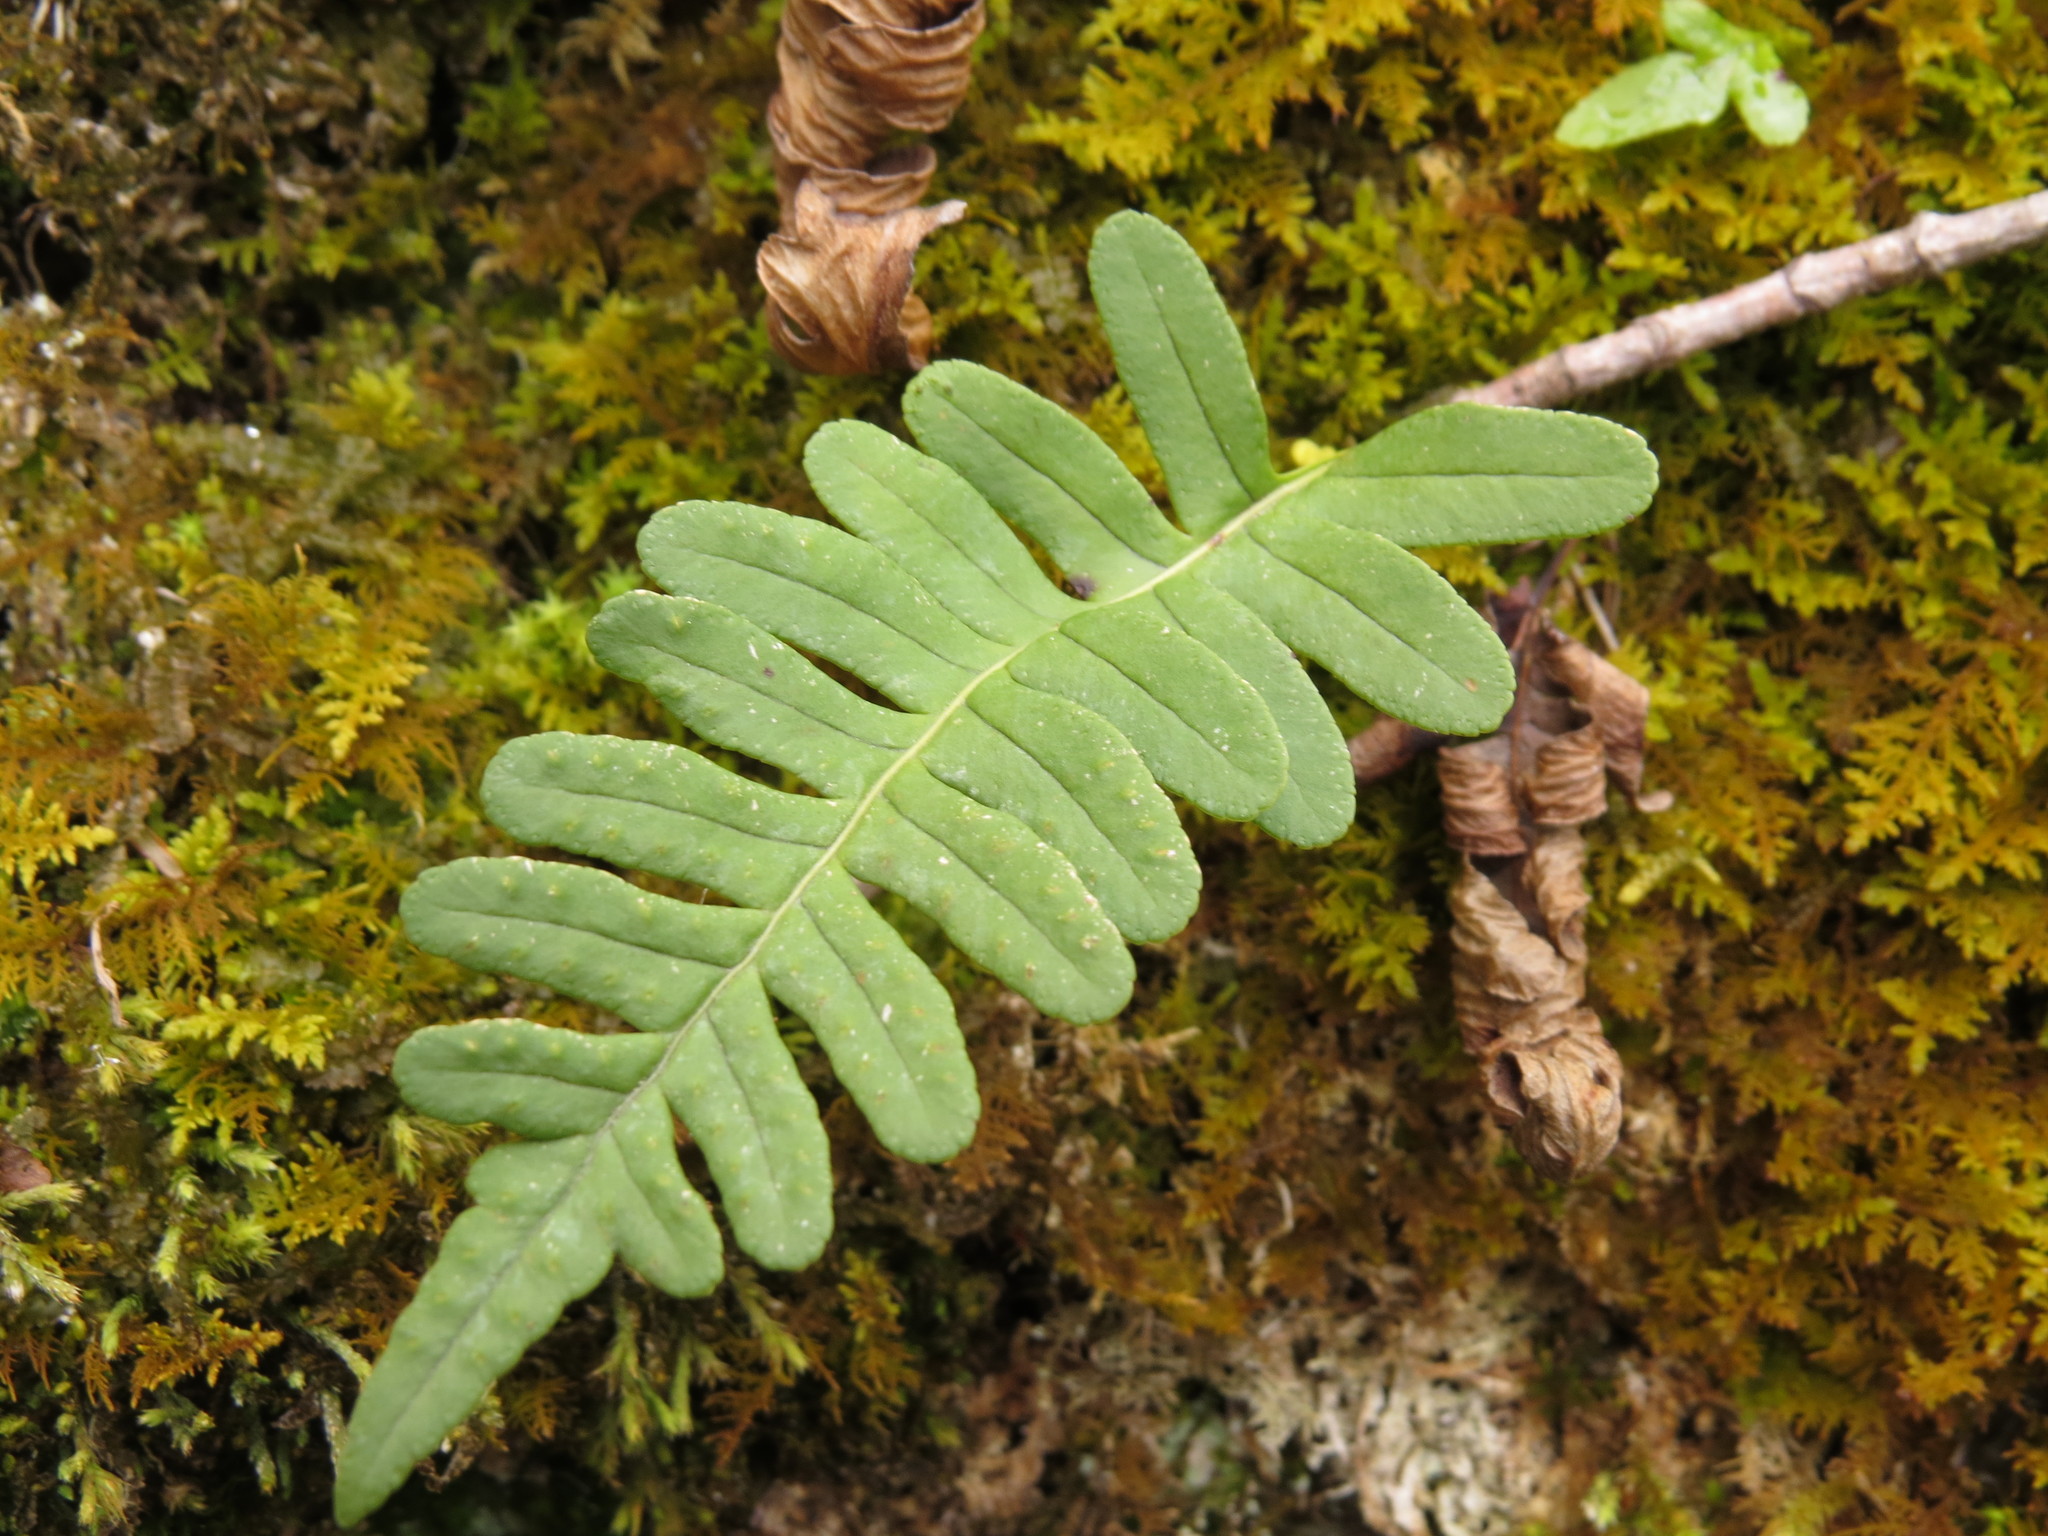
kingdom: Plantae
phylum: Tracheophyta
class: Polypodiopsida
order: Polypodiales
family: Polypodiaceae
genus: Polypodium
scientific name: Polypodium virginianum
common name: American wall fern
